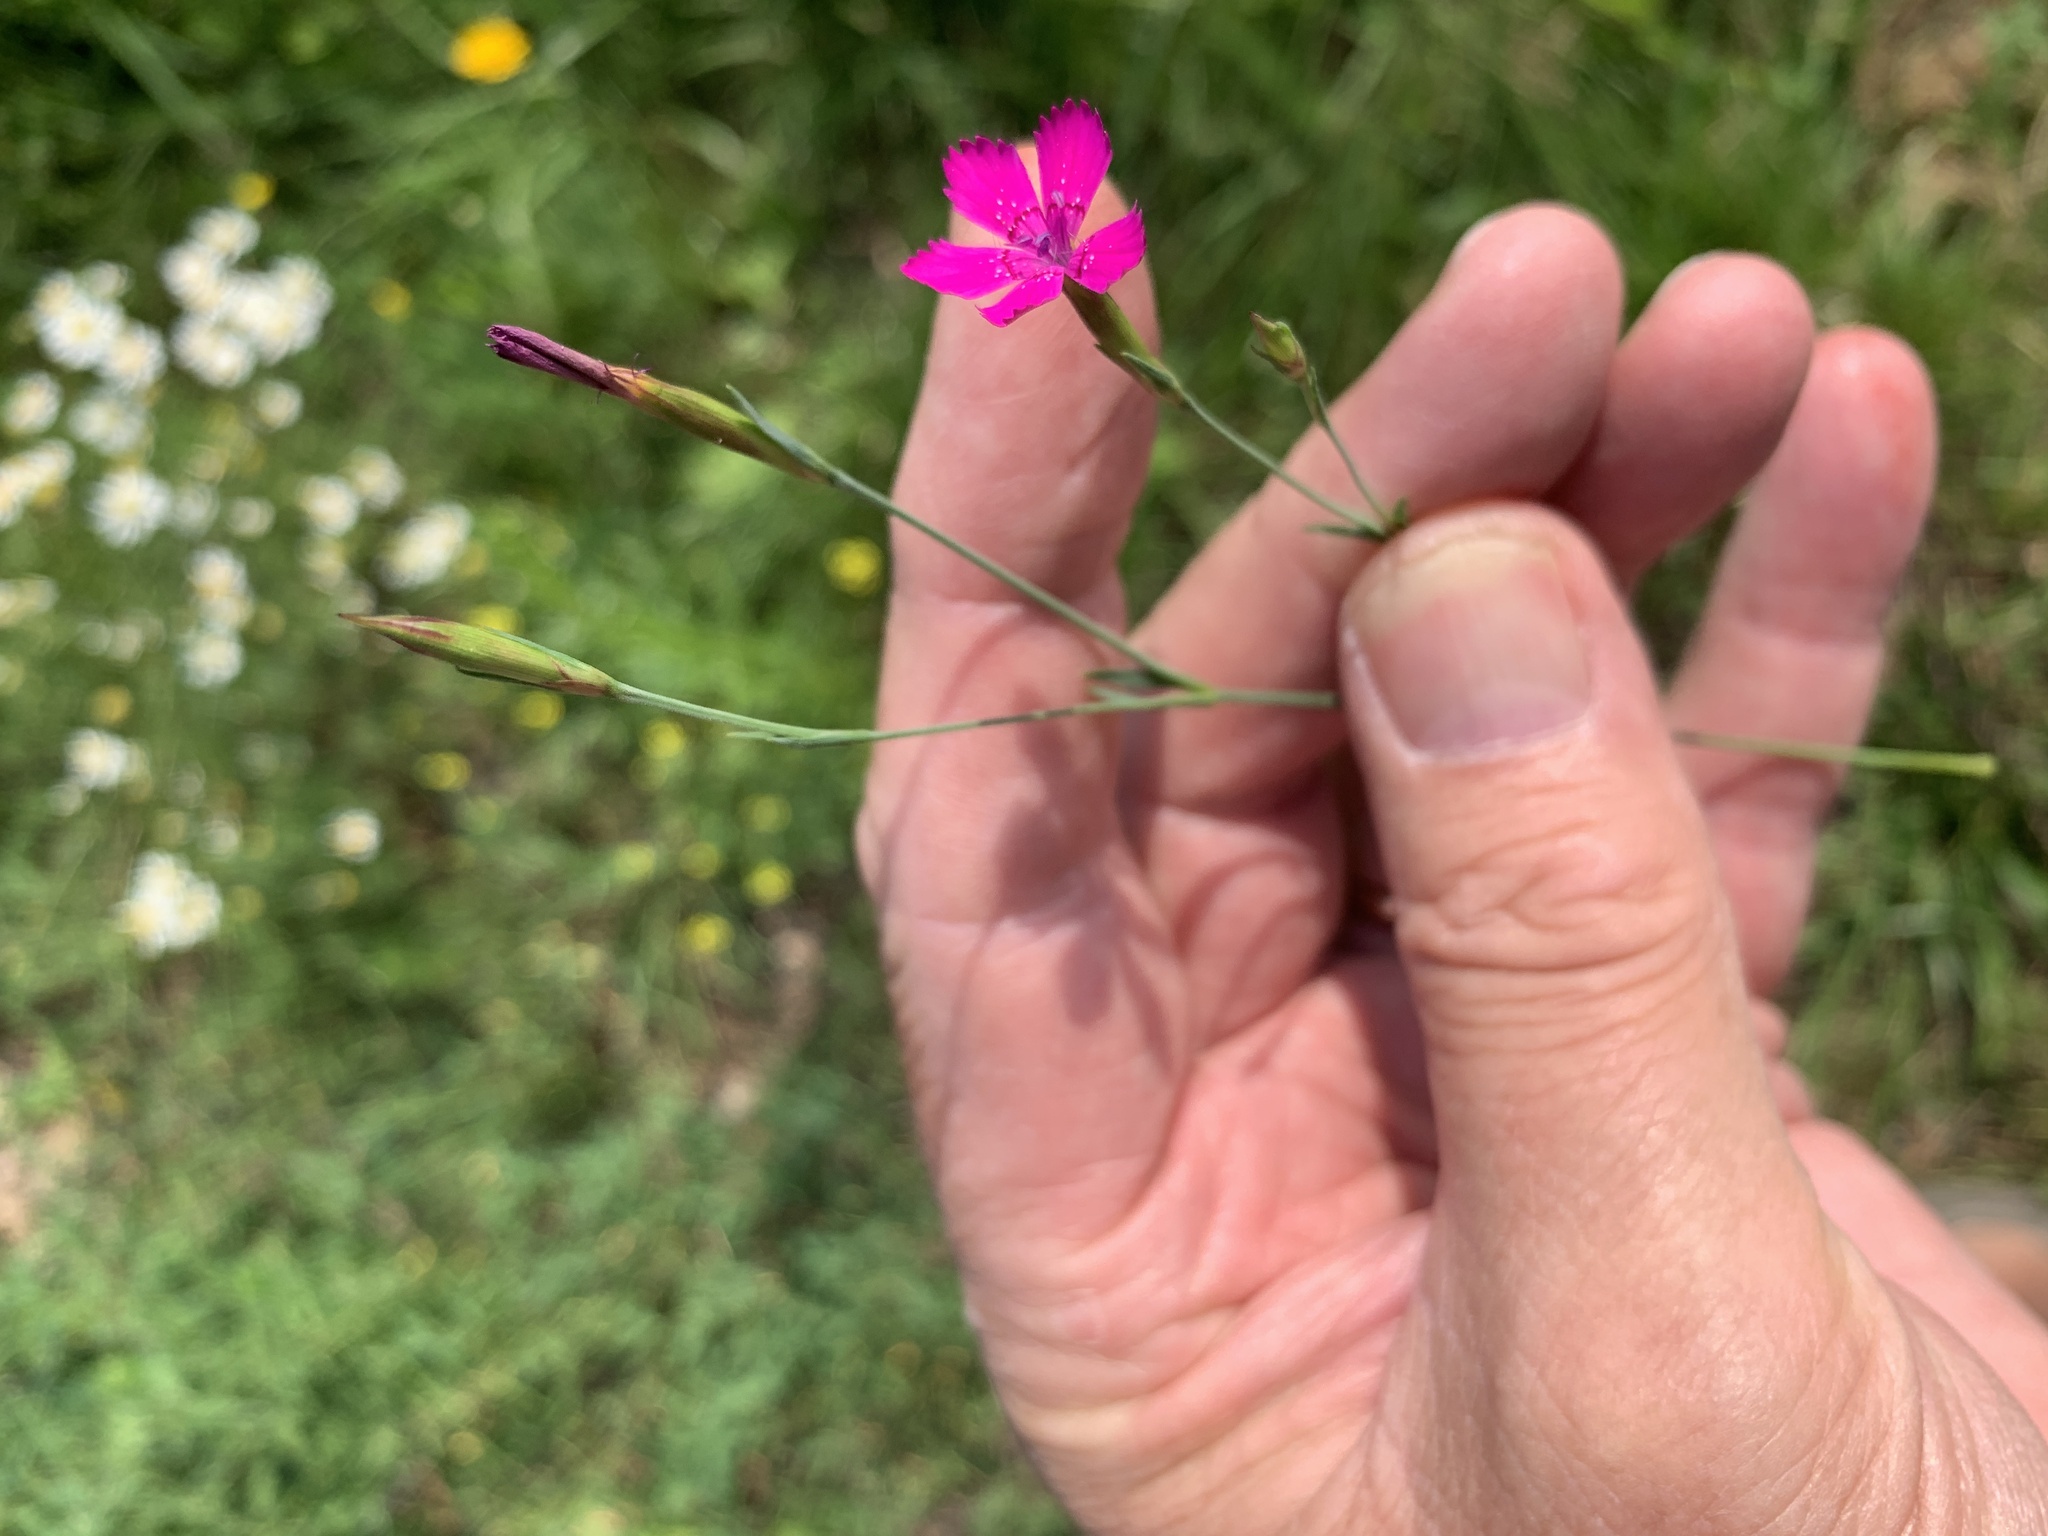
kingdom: Plantae
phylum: Tracheophyta
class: Magnoliopsida
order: Caryophyllales
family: Caryophyllaceae
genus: Dianthus
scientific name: Dianthus deltoides
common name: Maiden pink
